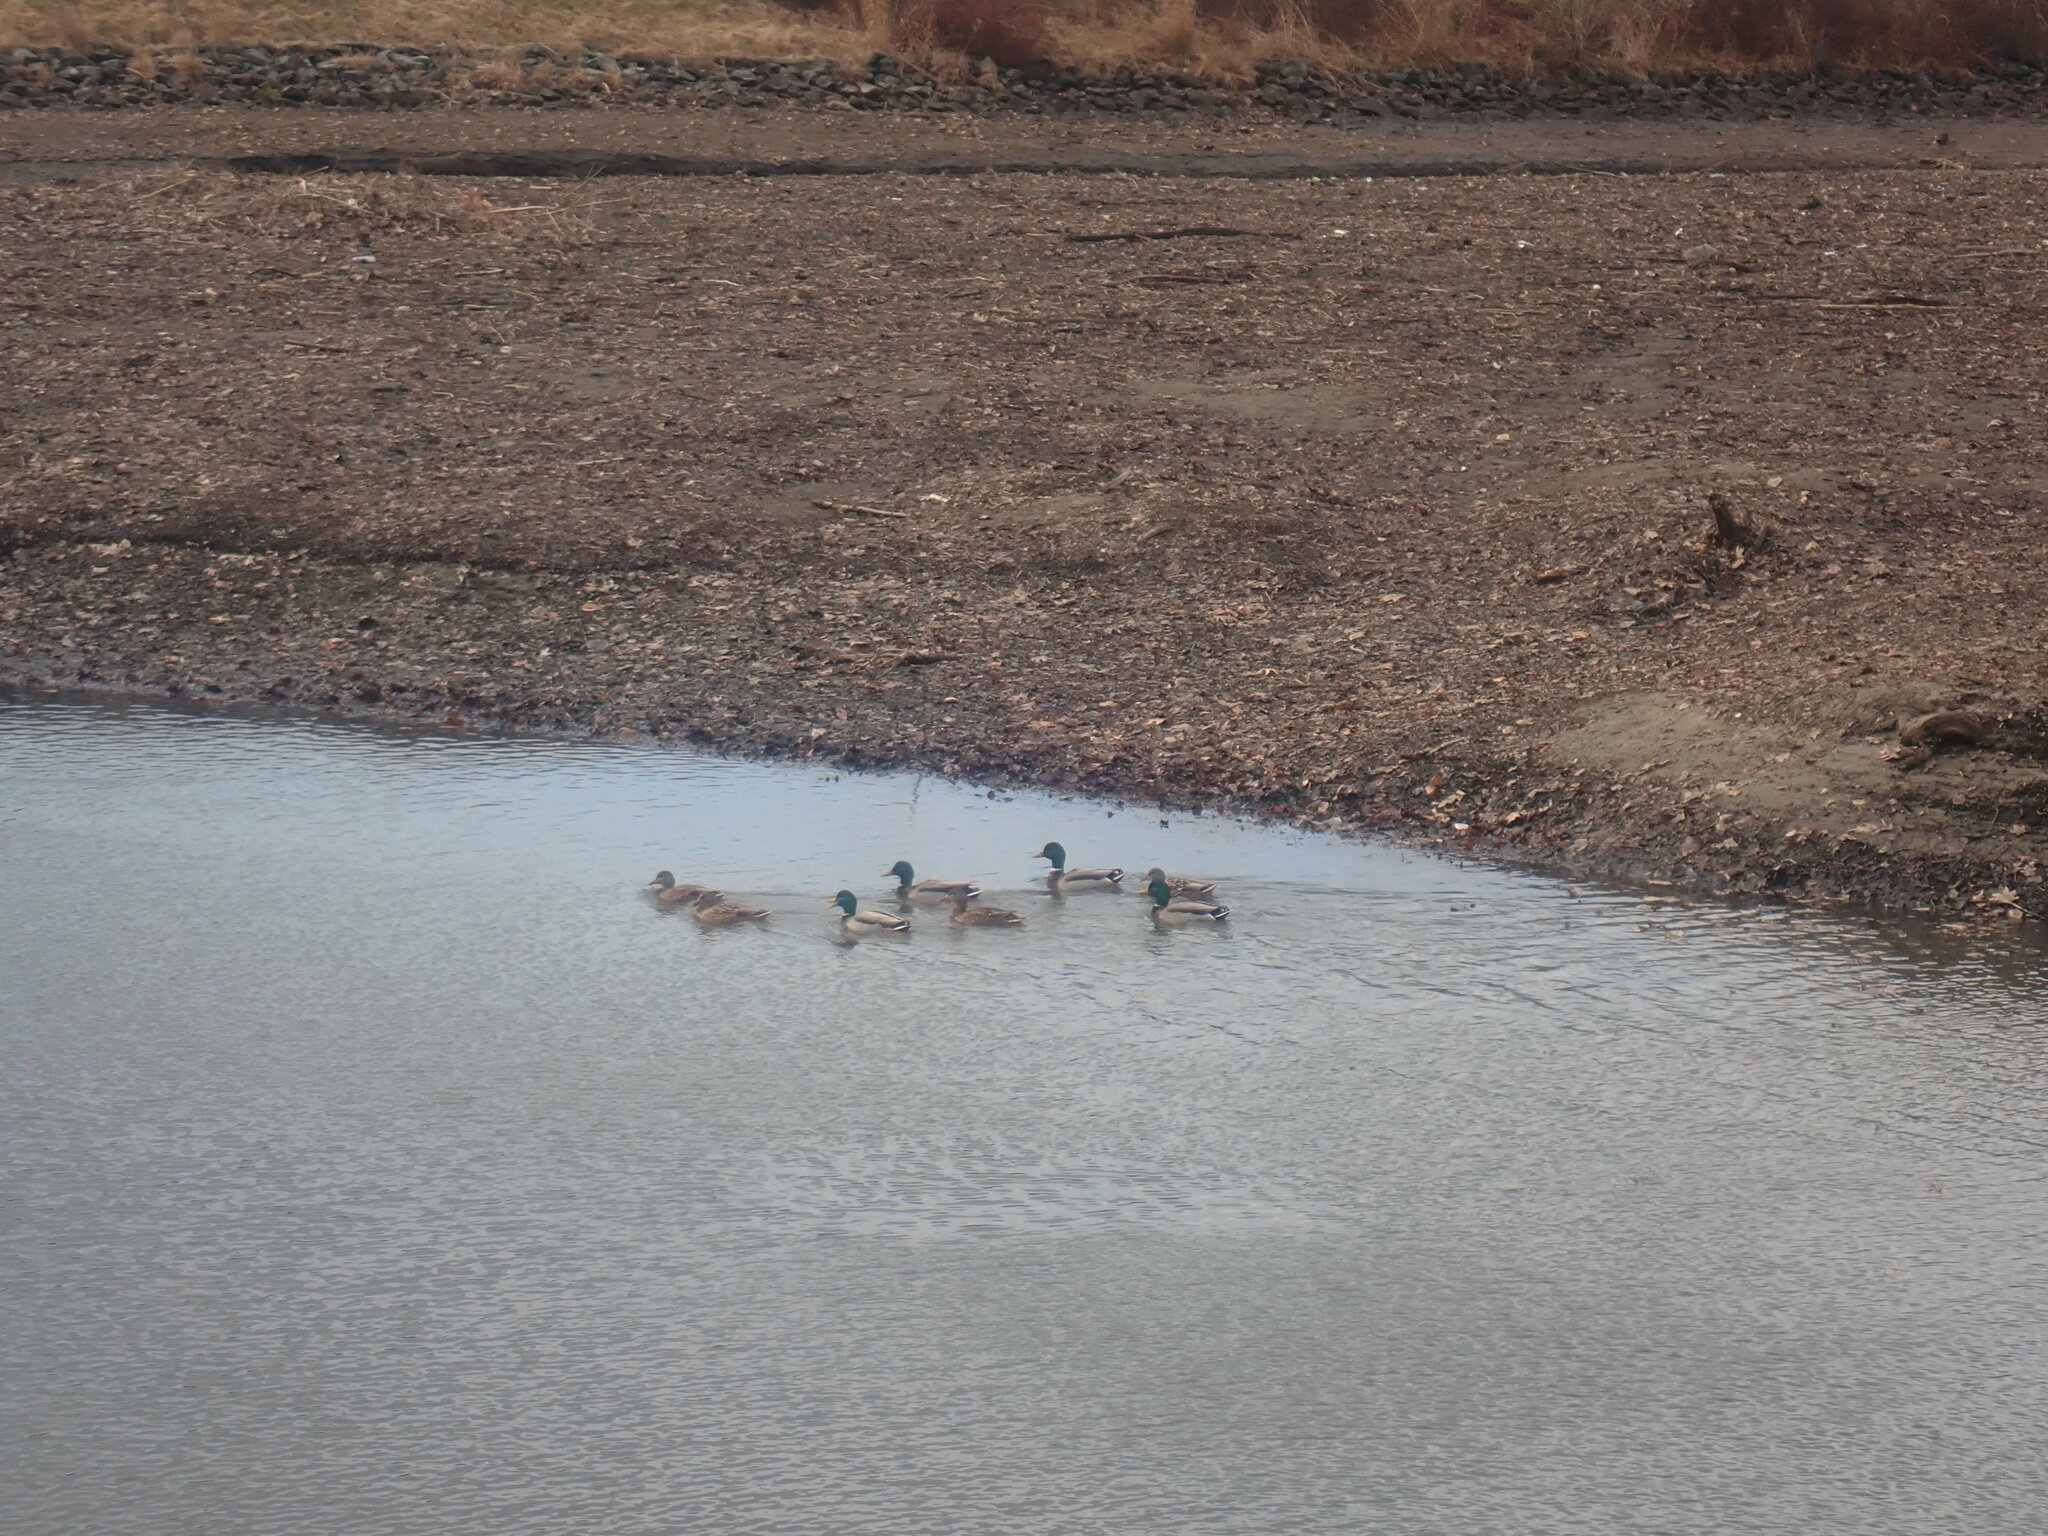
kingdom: Animalia
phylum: Chordata
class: Aves
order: Anseriformes
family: Anatidae
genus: Anas
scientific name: Anas platyrhynchos
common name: Mallard
